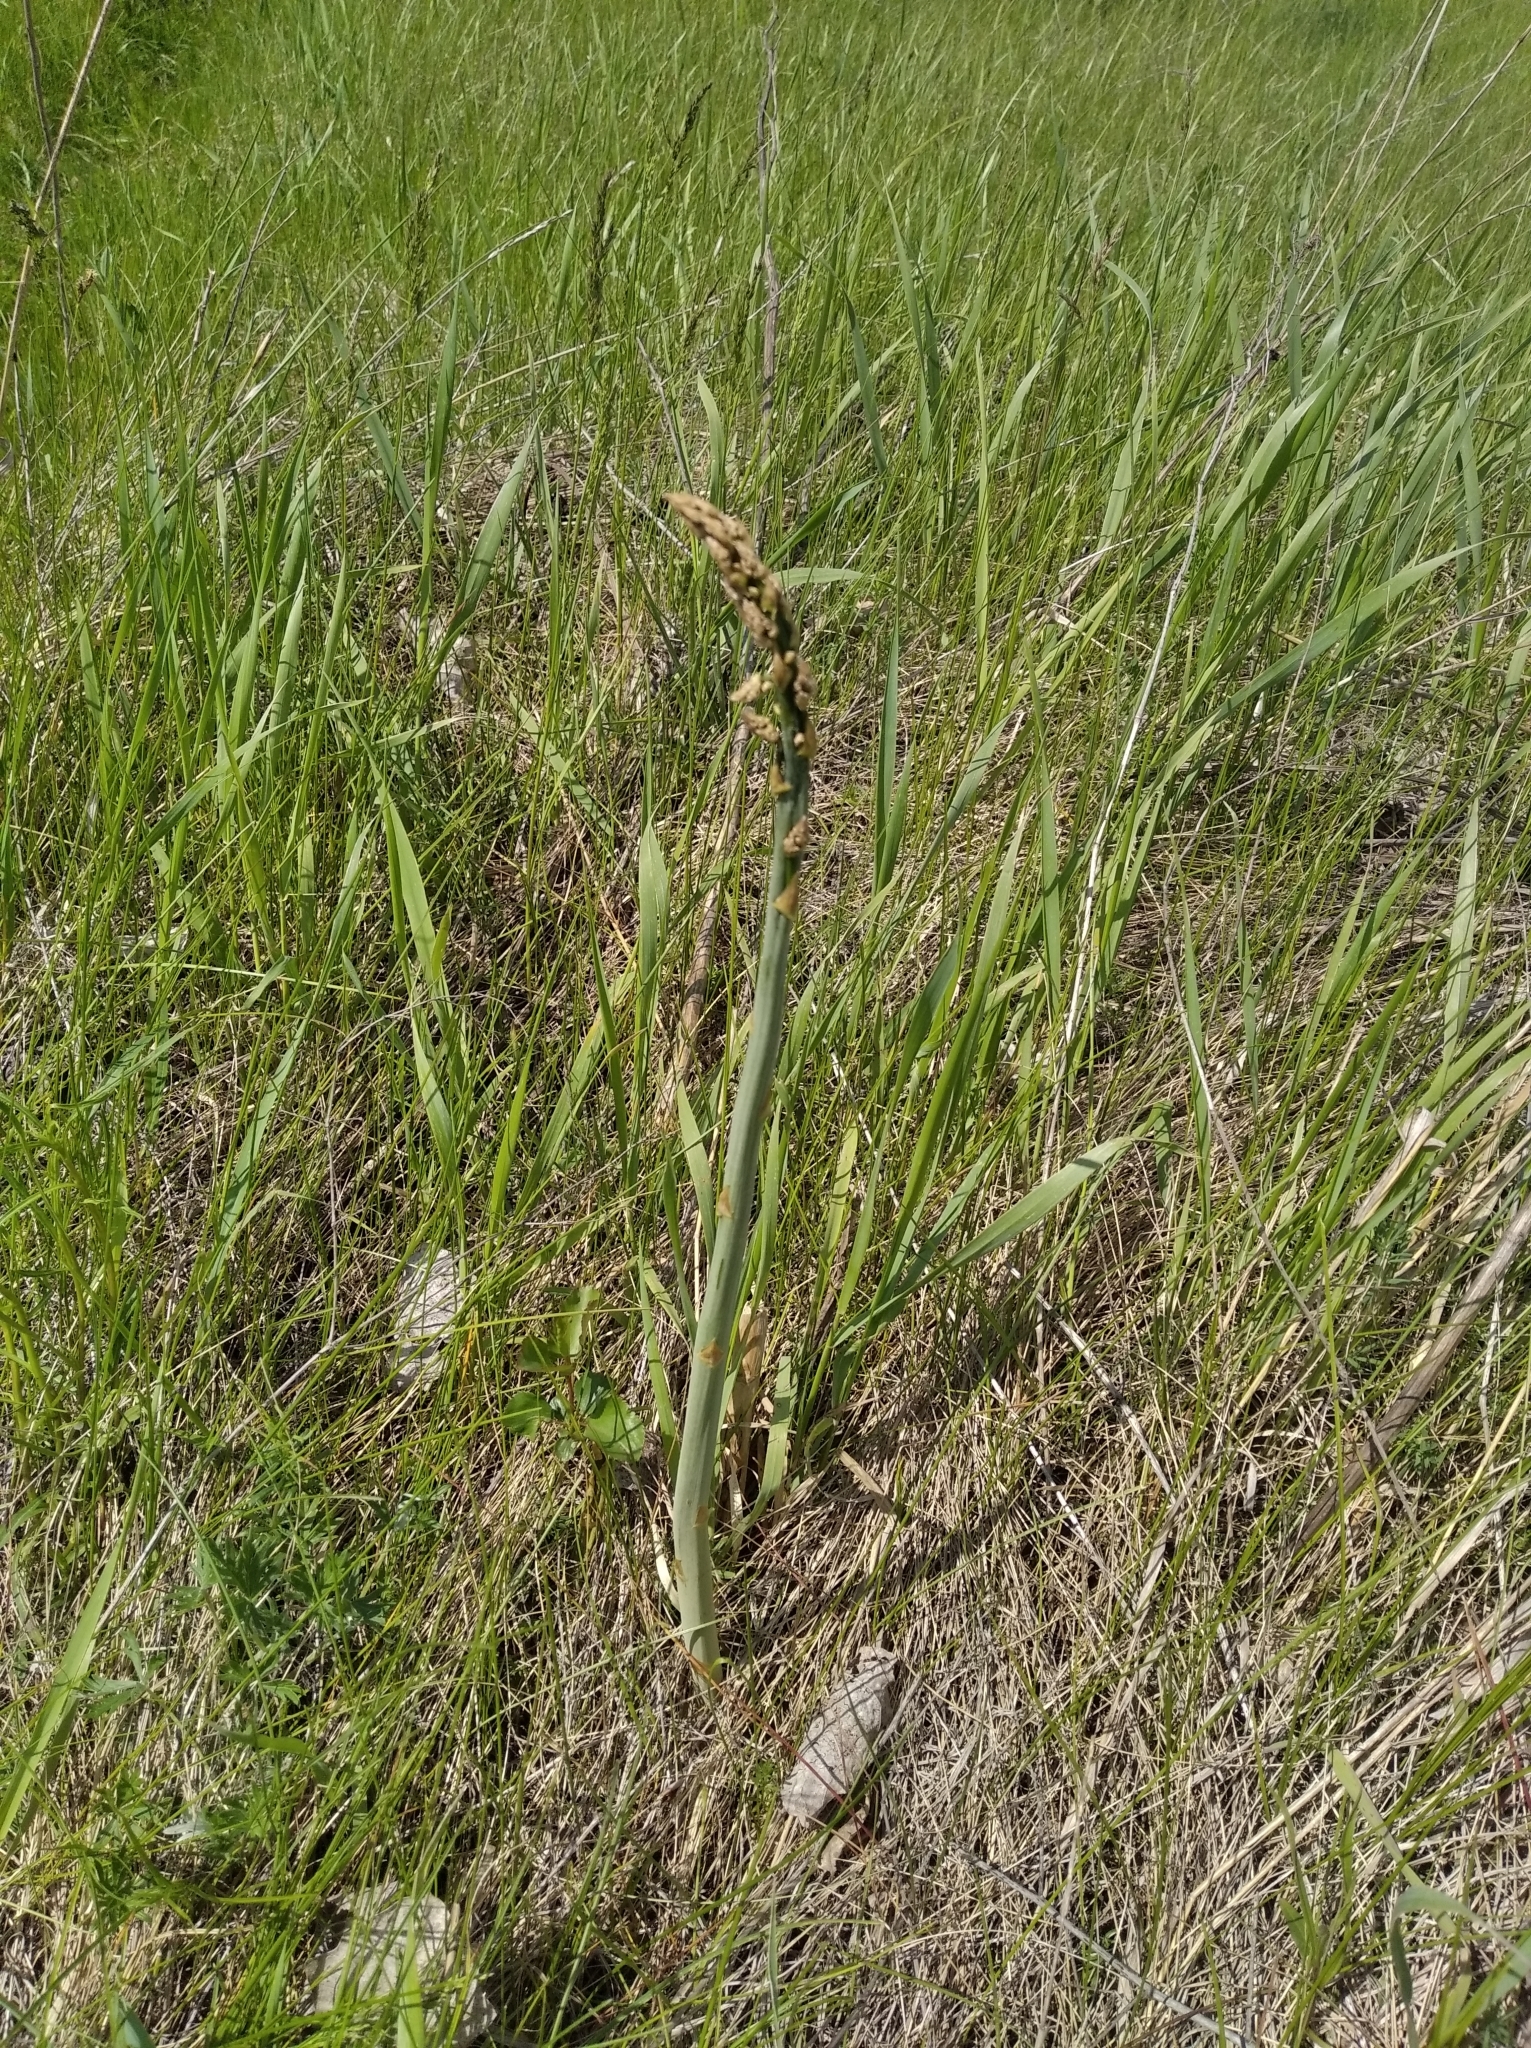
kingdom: Plantae
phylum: Tracheophyta
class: Liliopsida
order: Asparagales
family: Asparagaceae
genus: Asparagus
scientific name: Asparagus officinalis
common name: Garden asparagus
